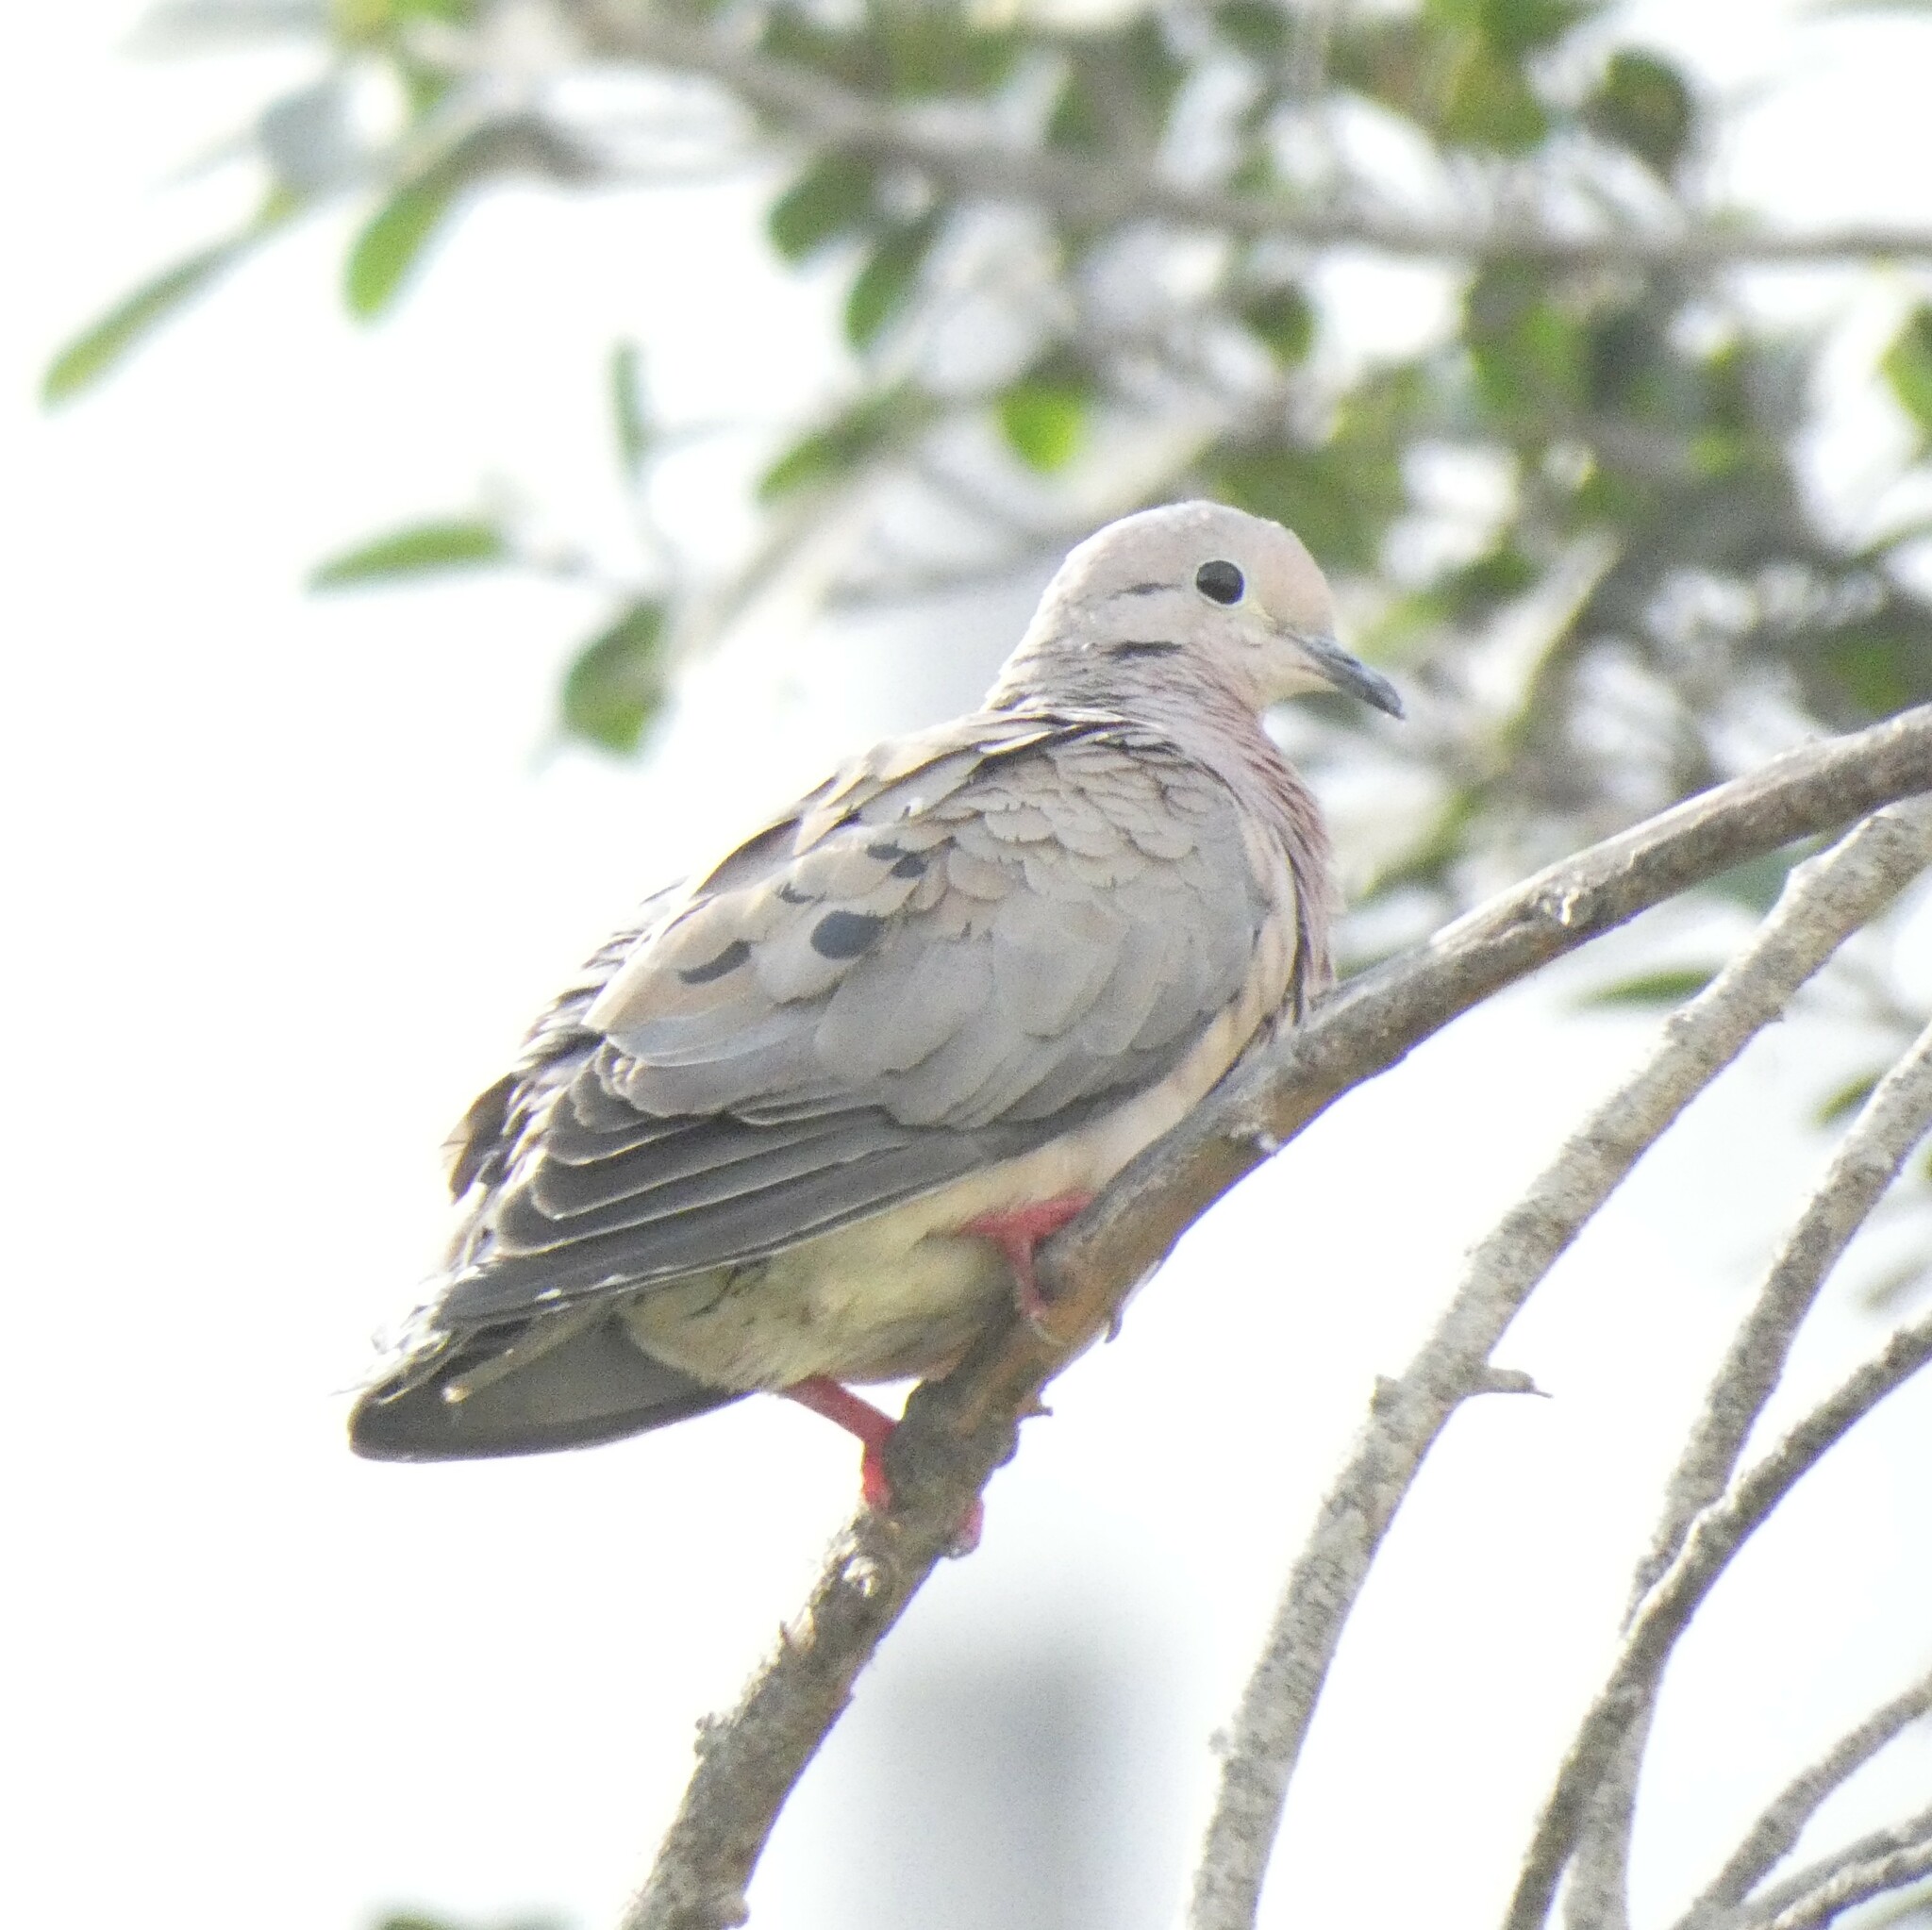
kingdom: Animalia
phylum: Chordata
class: Aves
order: Columbiformes
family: Columbidae
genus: Zenaida
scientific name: Zenaida auriculata
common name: Eared dove
